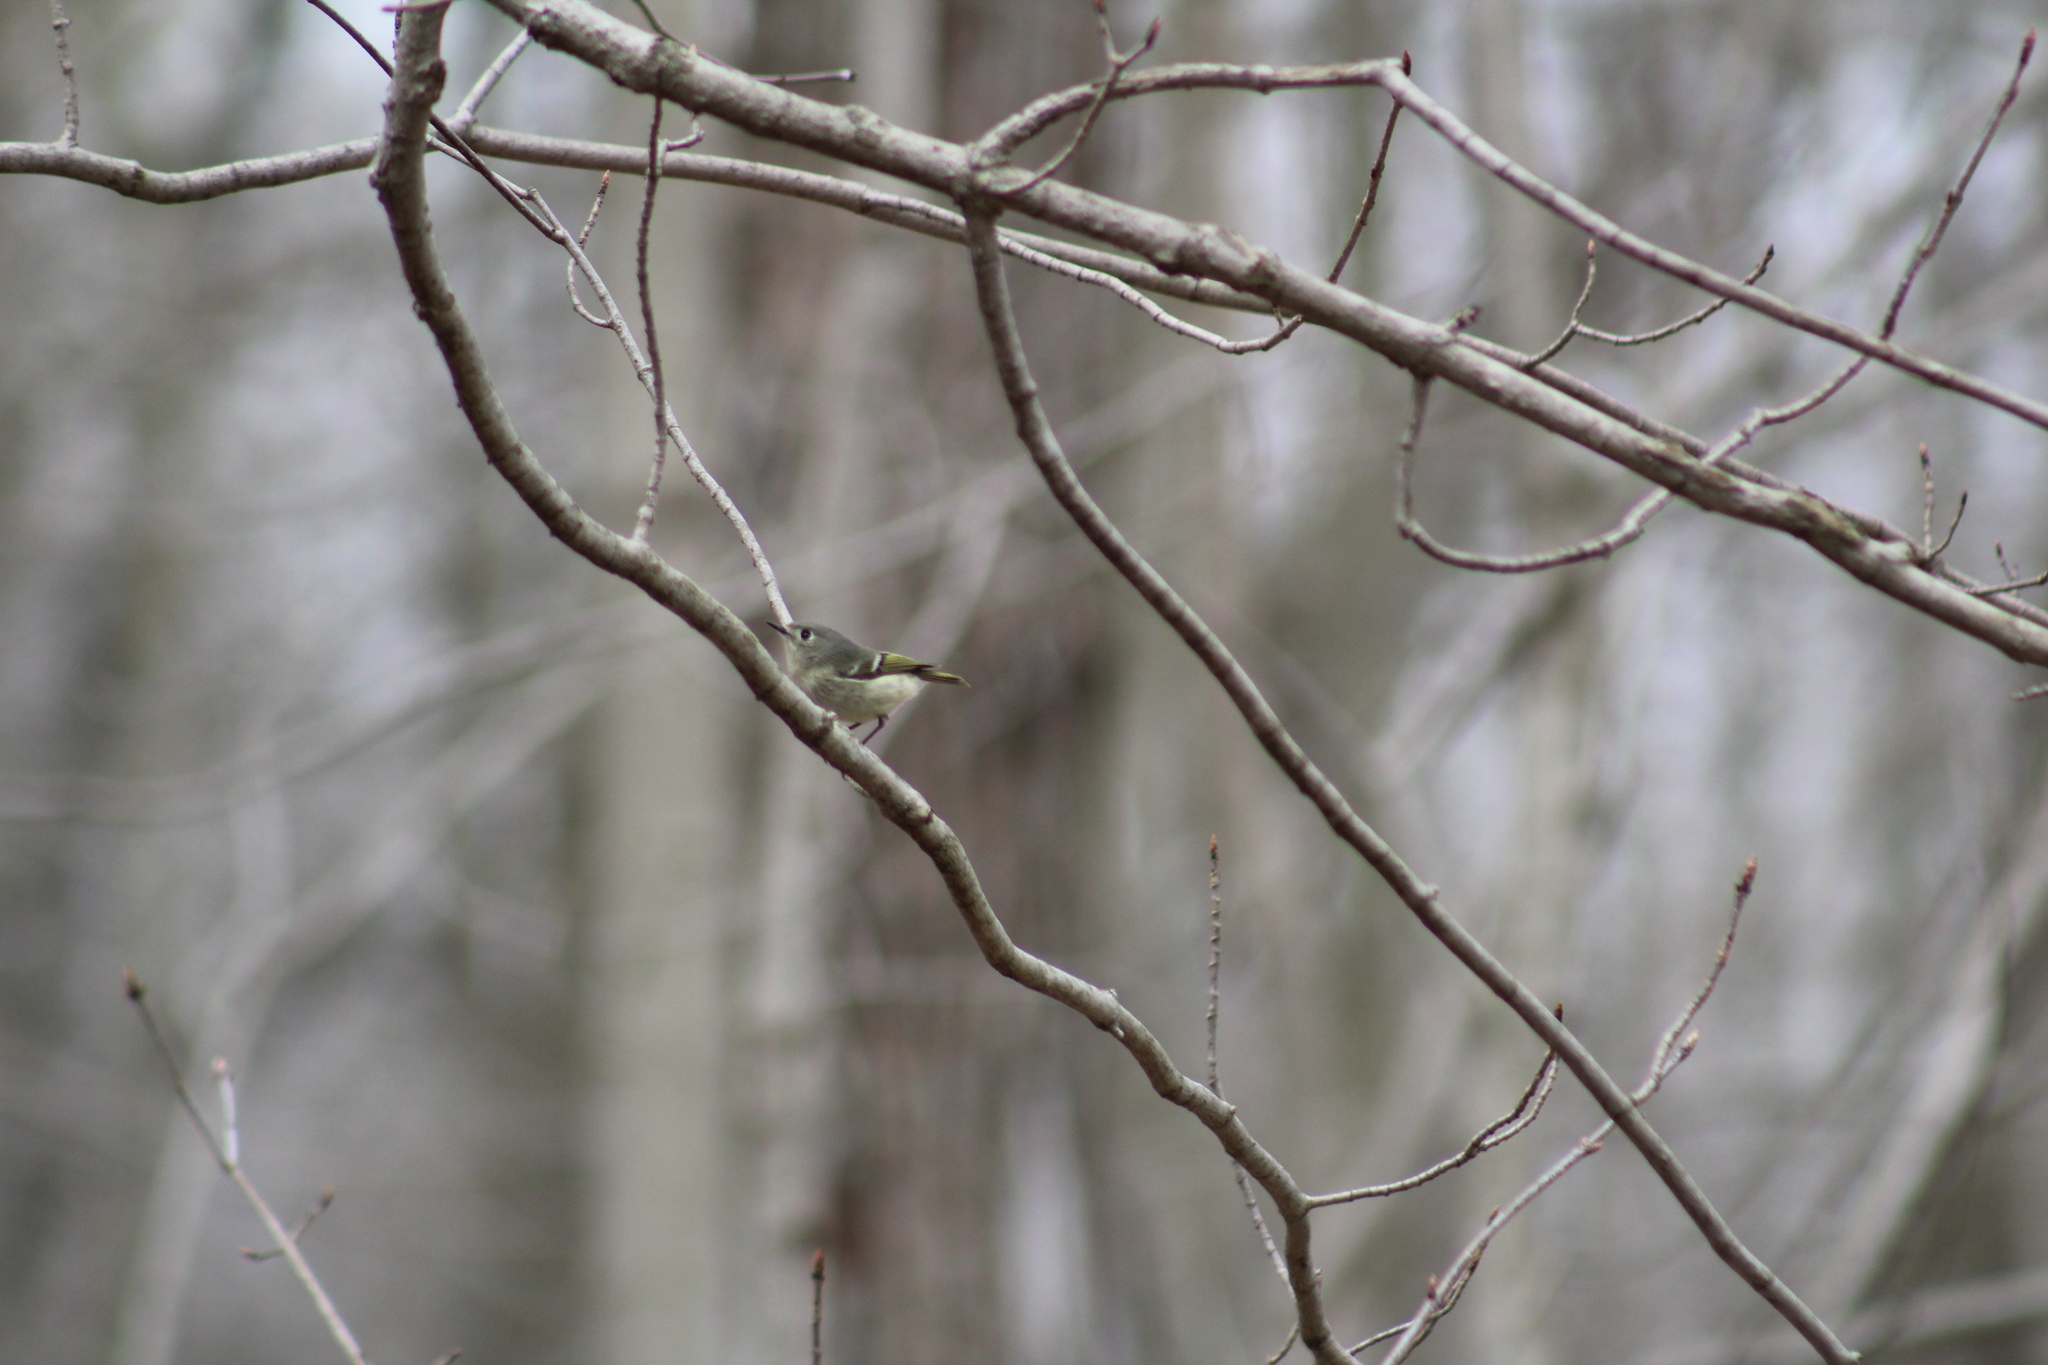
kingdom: Animalia
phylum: Chordata
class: Aves
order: Passeriformes
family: Regulidae
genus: Regulus
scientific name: Regulus calendula
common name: Ruby-crowned kinglet
